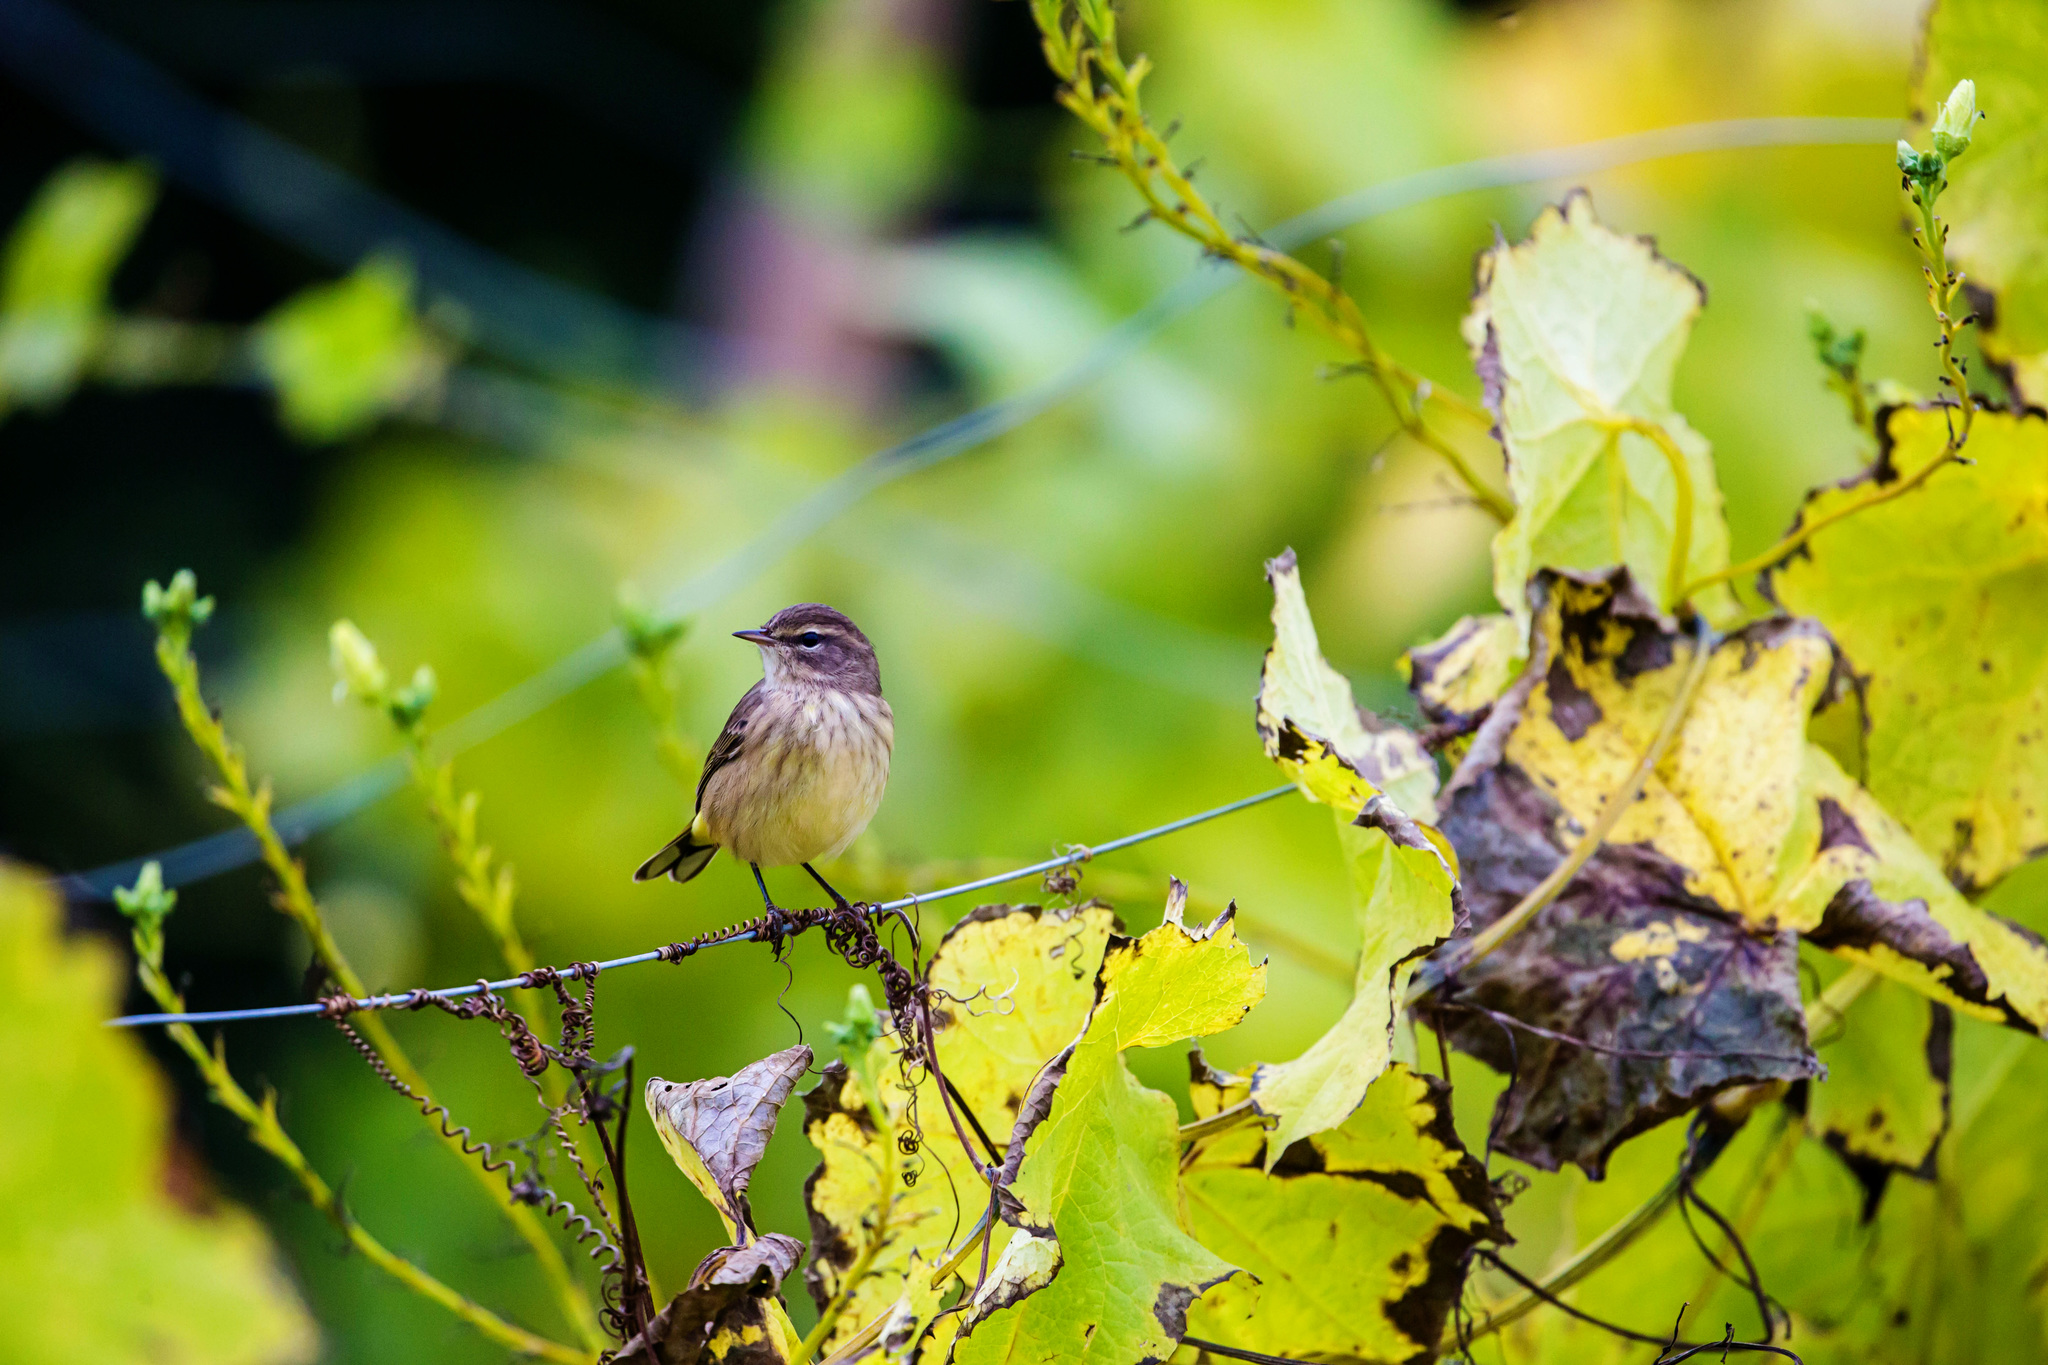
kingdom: Animalia
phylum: Chordata
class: Aves
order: Passeriformes
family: Parulidae
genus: Setophaga
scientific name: Setophaga palmarum
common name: Palm warbler
